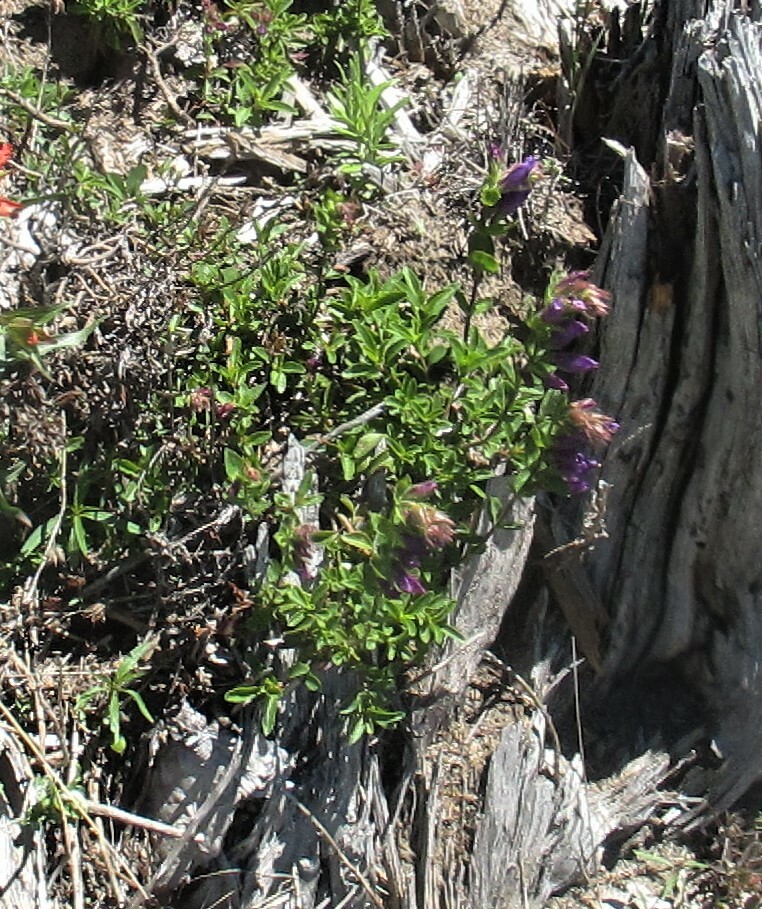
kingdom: Plantae
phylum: Tracheophyta
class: Magnoliopsida
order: Lamiales
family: Plantaginaceae
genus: Penstemon
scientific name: Penstemon cardwellii
